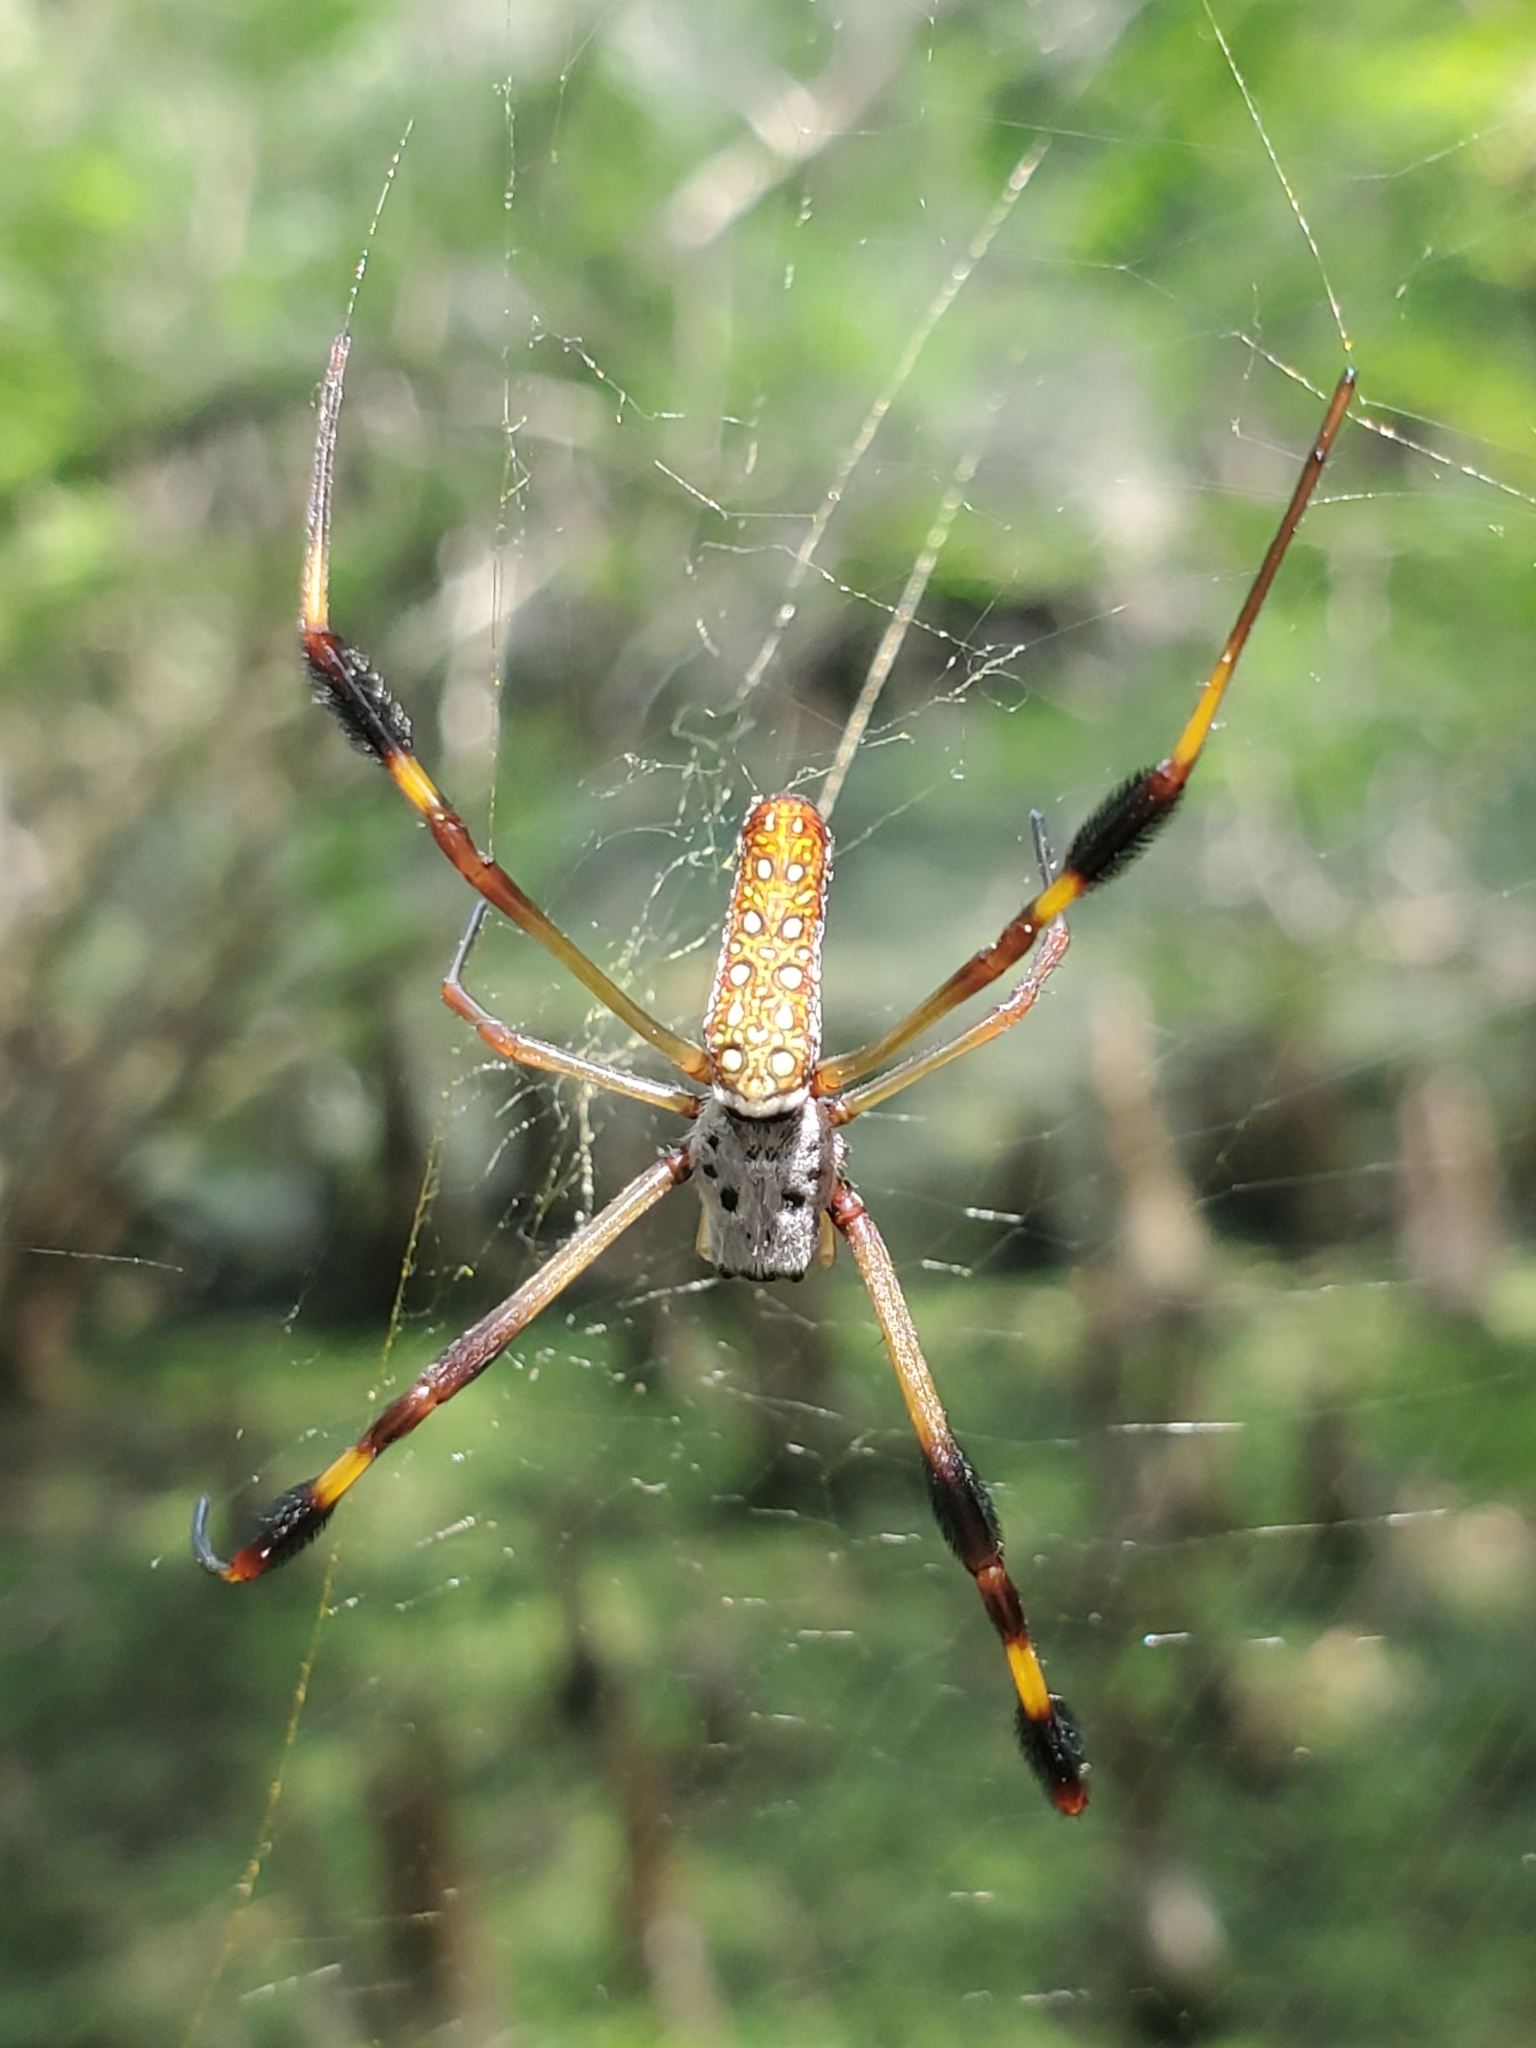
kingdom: Animalia
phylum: Arthropoda
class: Arachnida
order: Araneae
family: Araneidae
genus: Trichonephila
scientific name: Trichonephila clavipes
